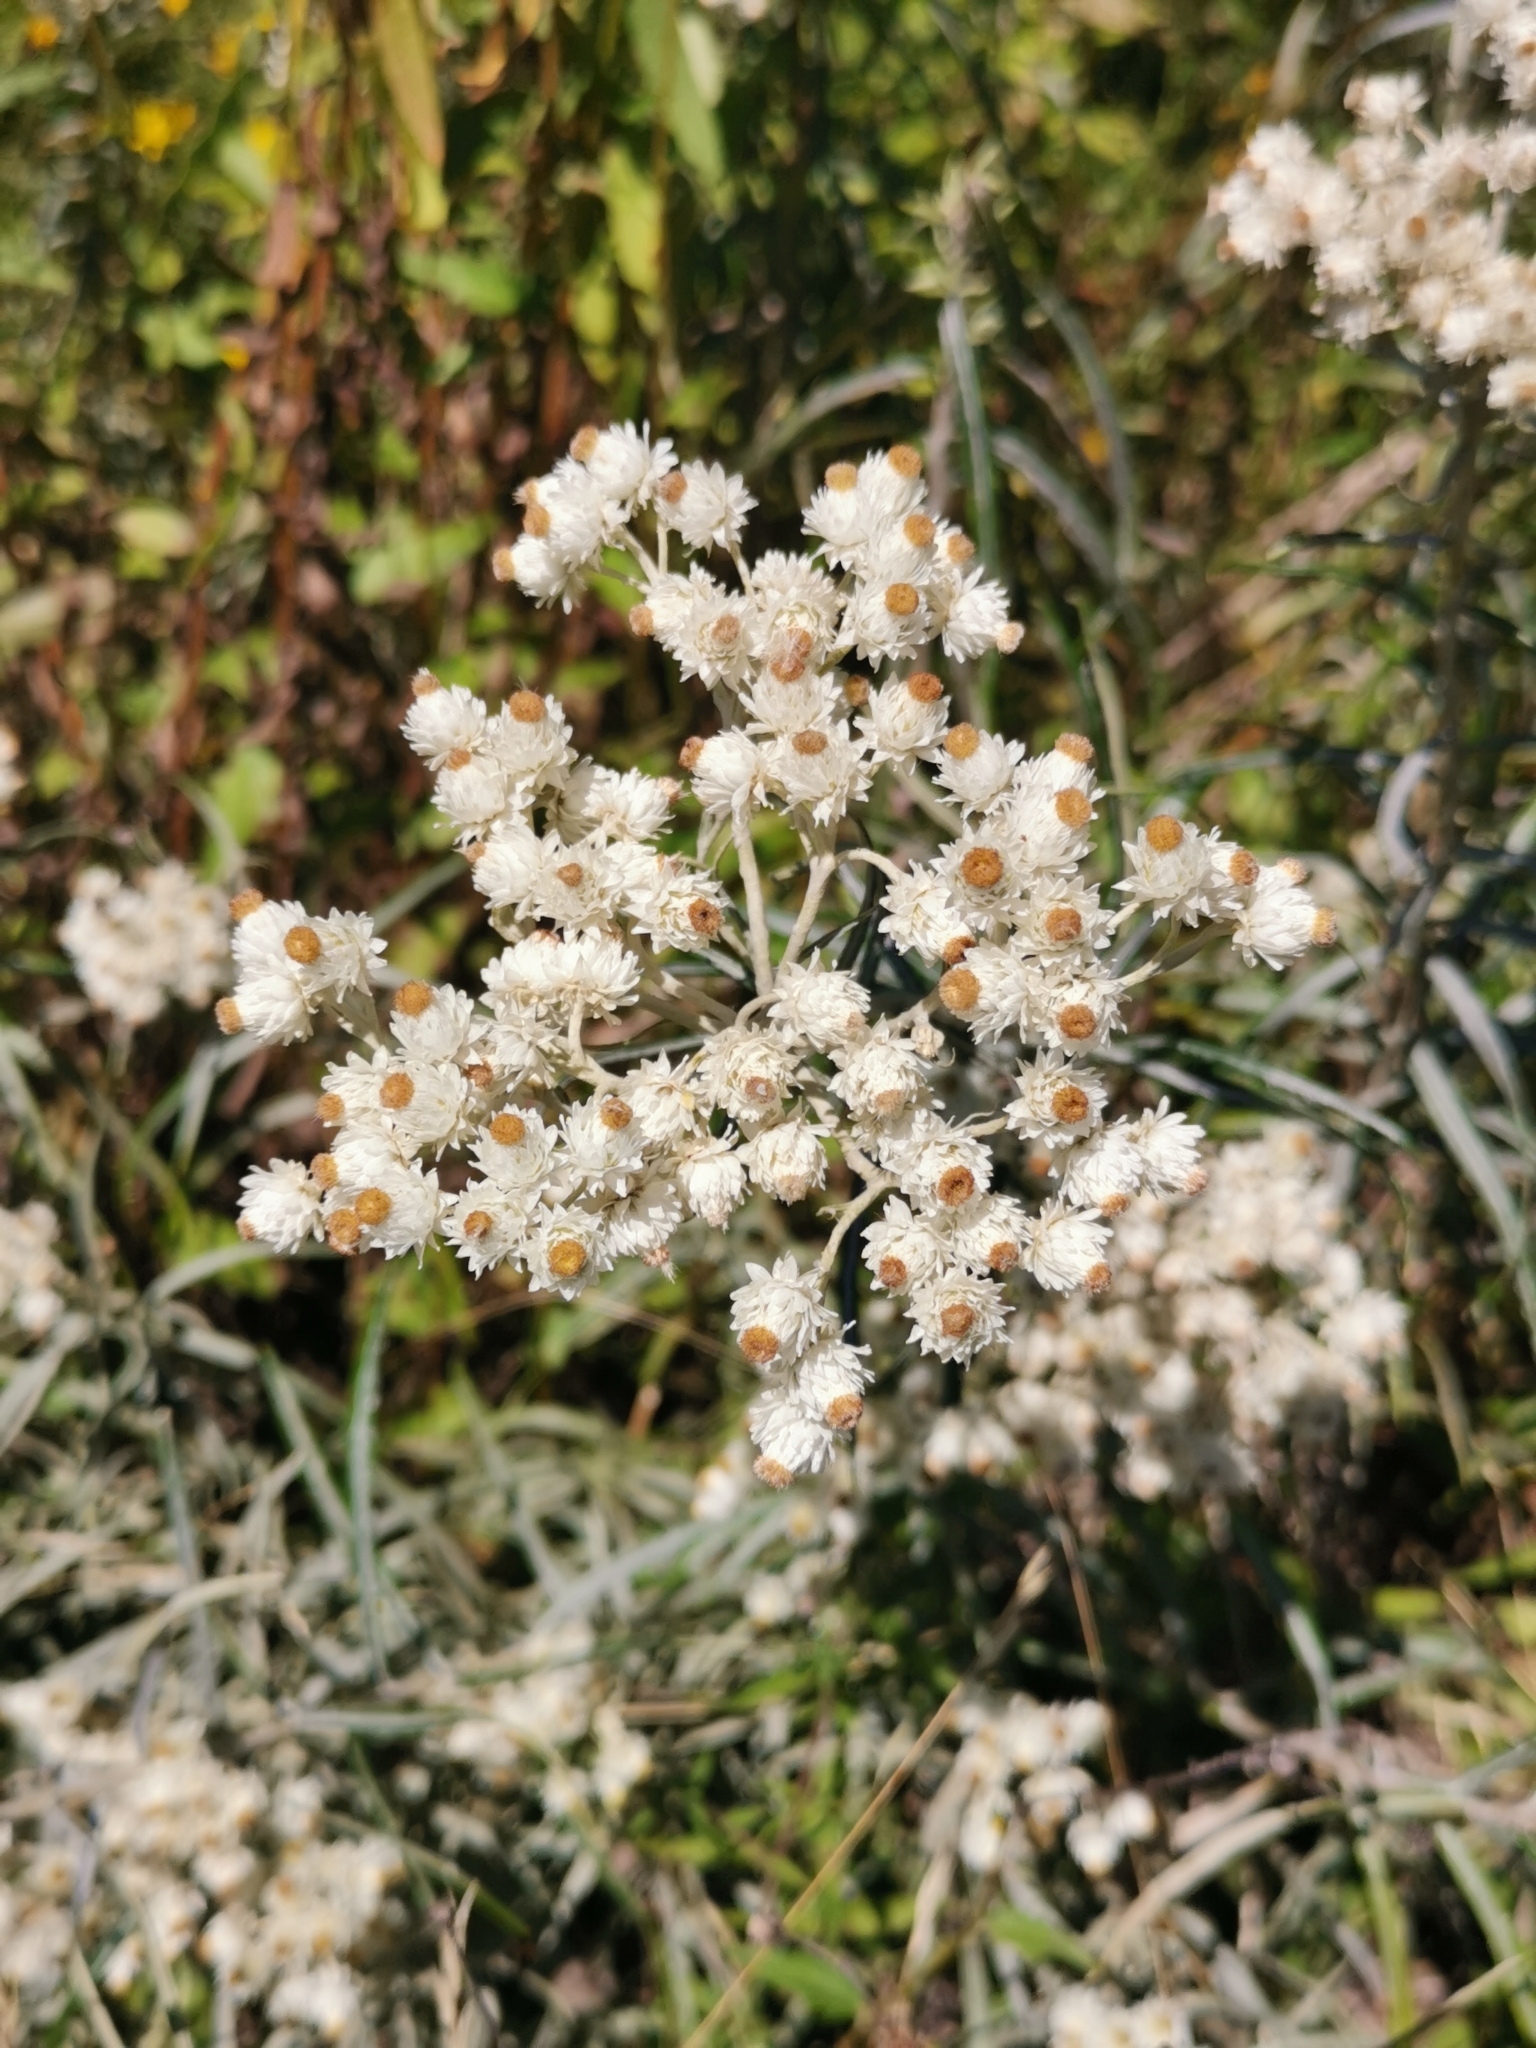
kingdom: Plantae
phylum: Tracheophyta
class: Magnoliopsida
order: Asterales
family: Asteraceae
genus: Anaphalis
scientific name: Anaphalis margaritacea
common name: Pearly everlasting
